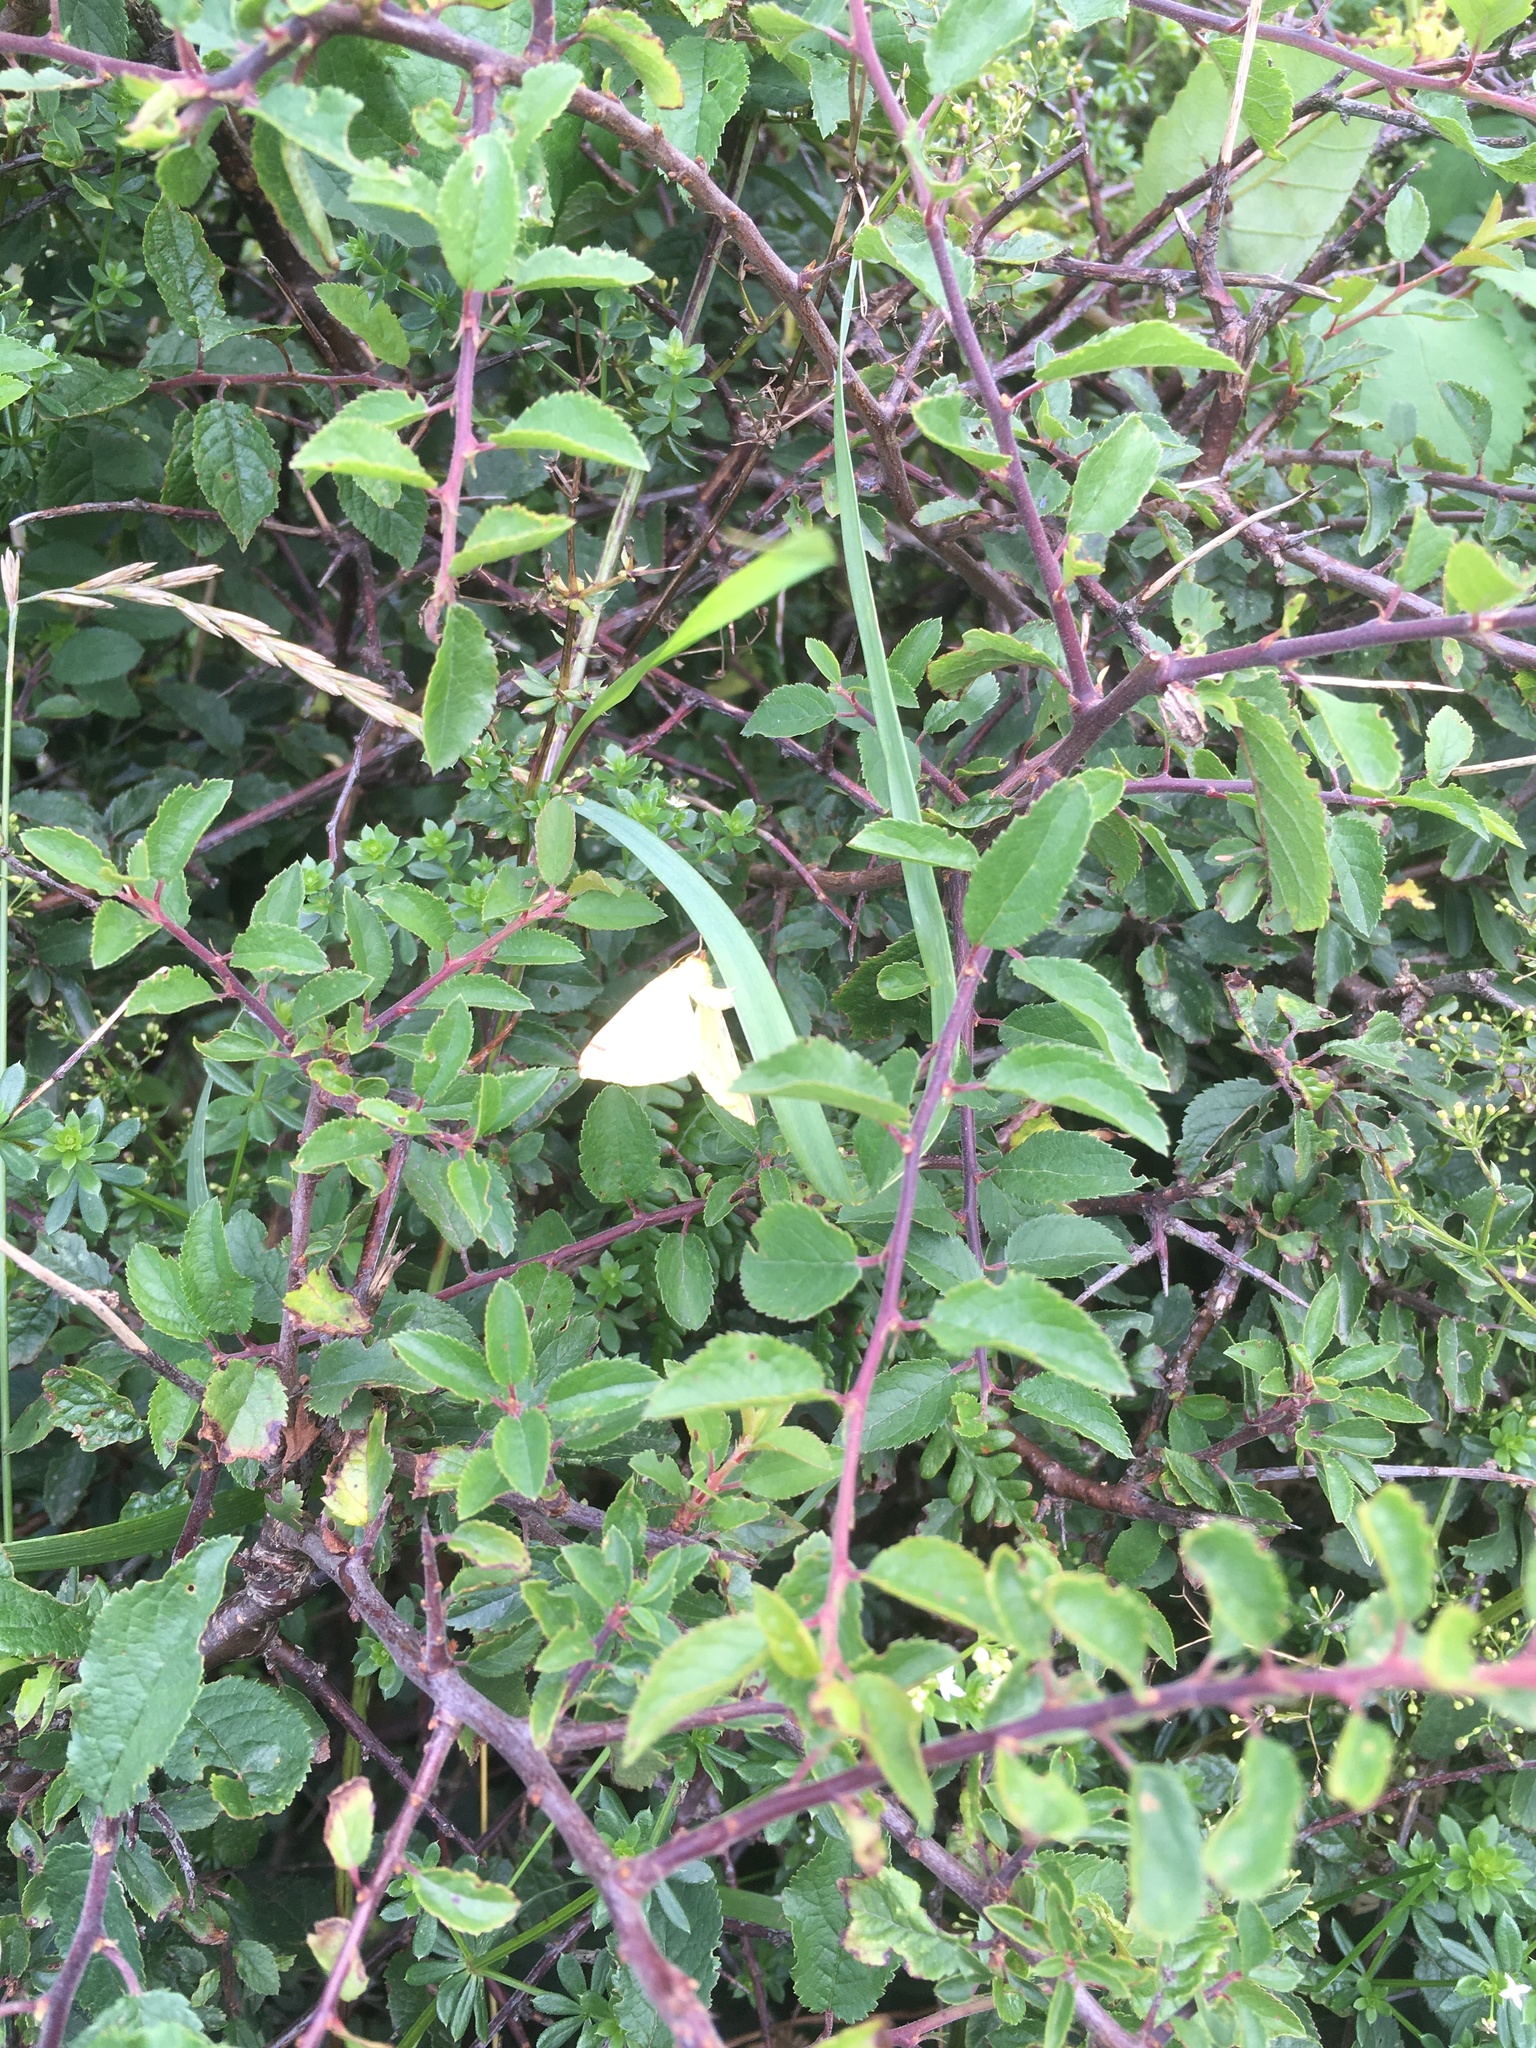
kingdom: Animalia
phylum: Arthropoda
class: Insecta
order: Lepidoptera
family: Geometridae
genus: Opisthograptis
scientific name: Opisthograptis luteolata
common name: Brimstone moth
